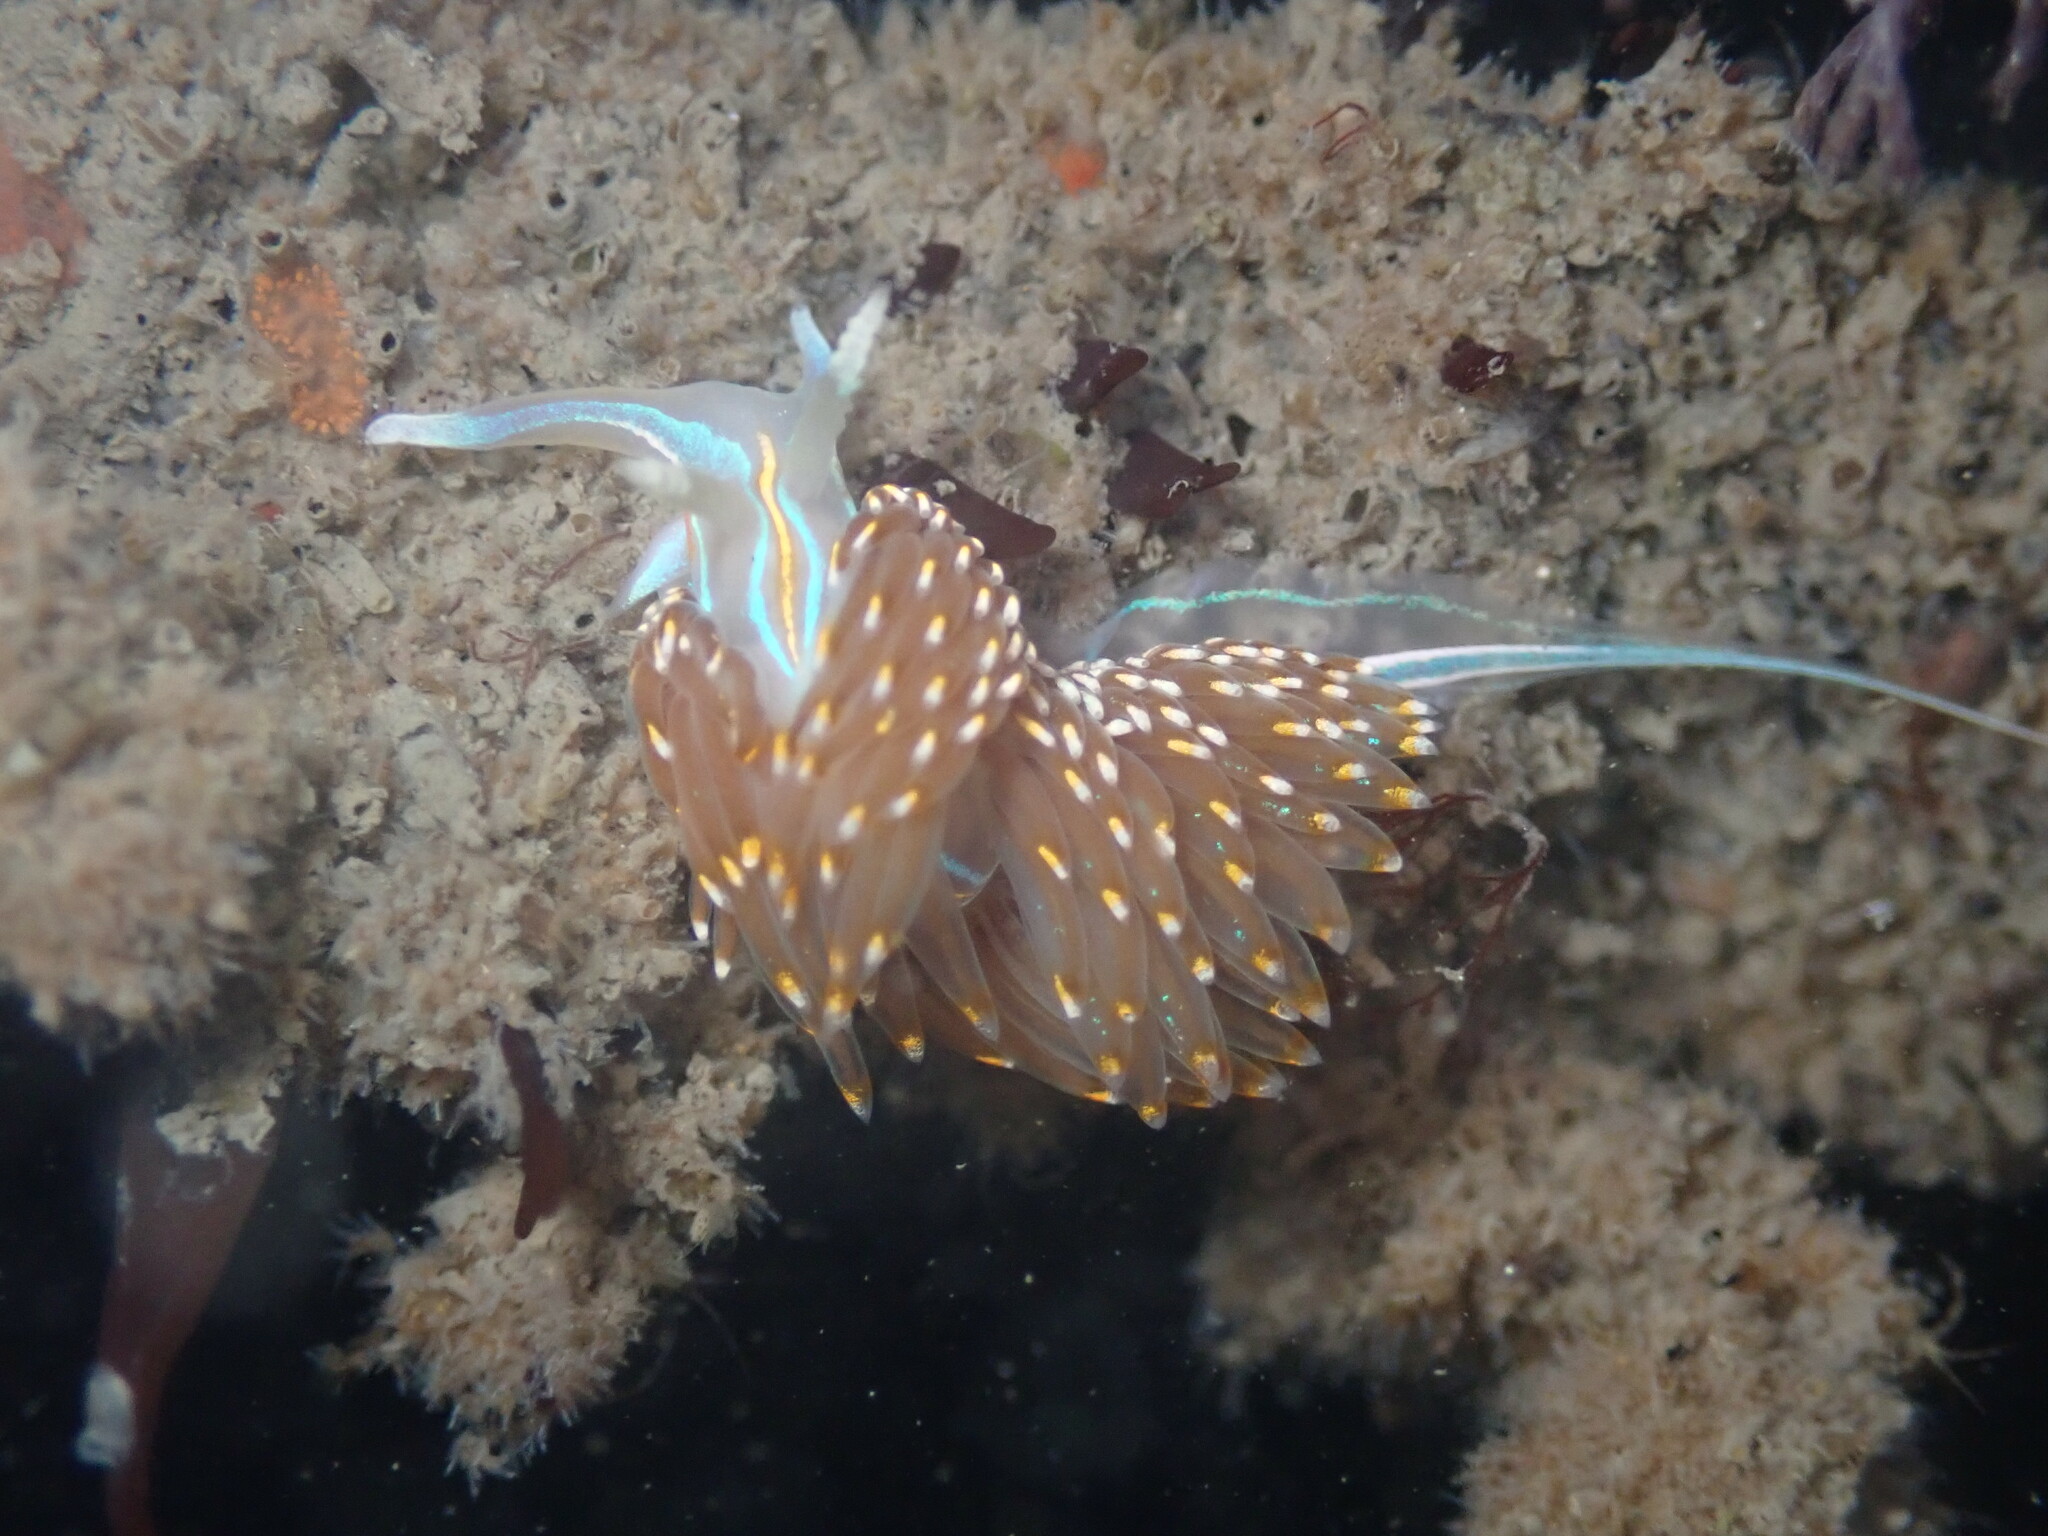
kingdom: Animalia
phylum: Mollusca
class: Gastropoda
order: Nudibranchia
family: Myrrhinidae
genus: Hermissenda
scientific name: Hermissenda opalescens
